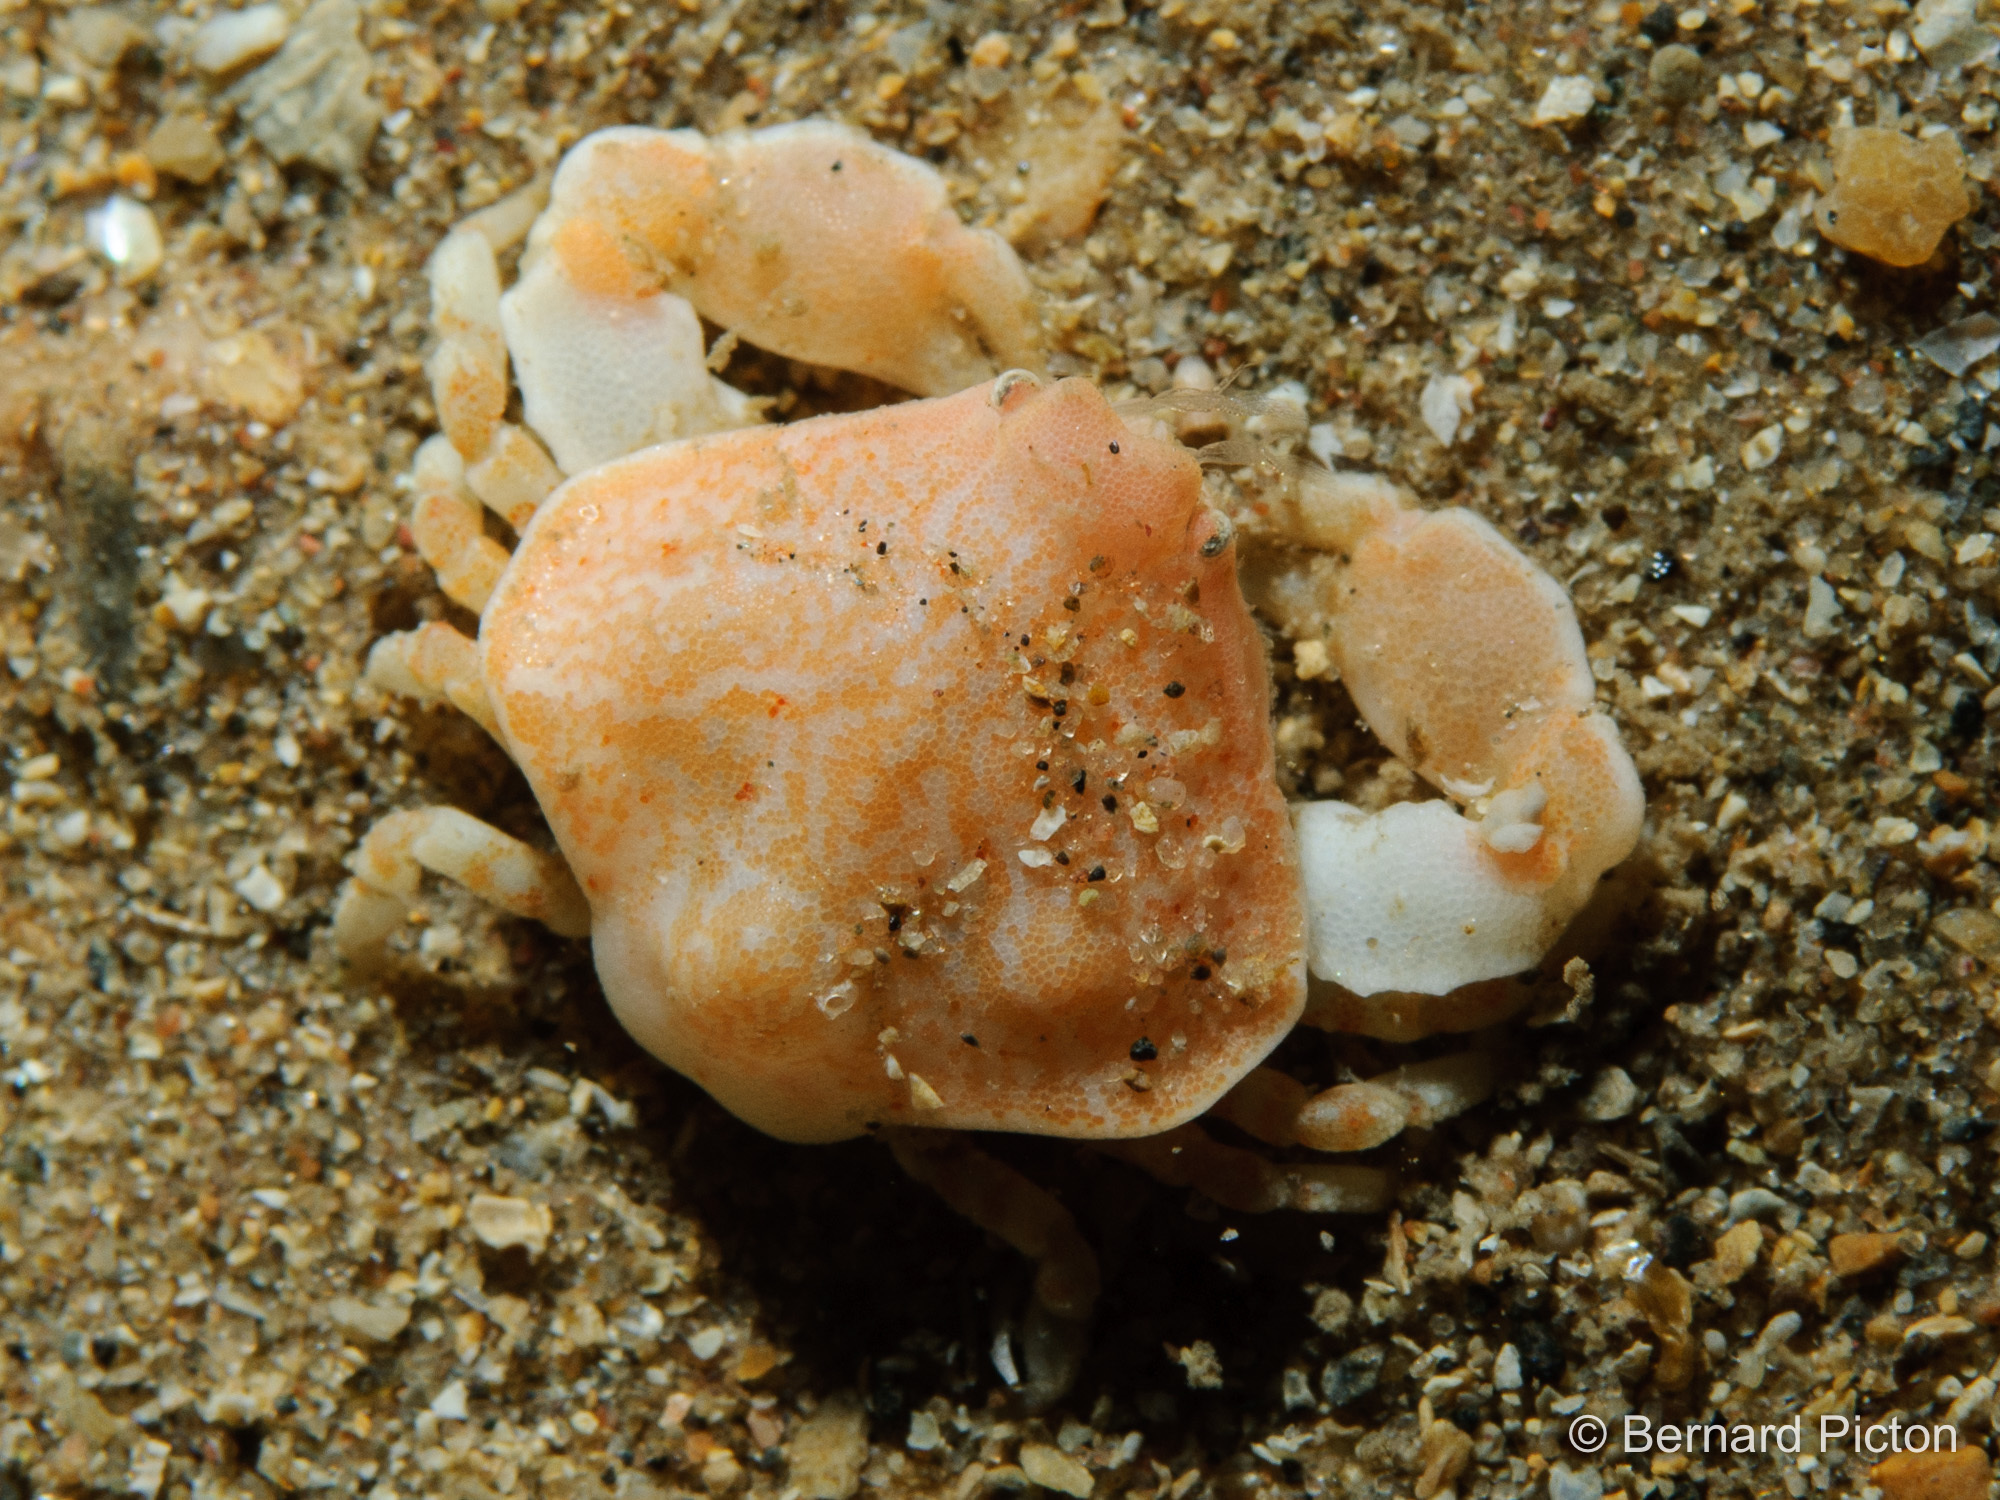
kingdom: Animalia
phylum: Arthropoda
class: Malacostraca
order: Decapoda
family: Leucosiidae
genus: Ebalia
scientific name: Ebalia granulosa
